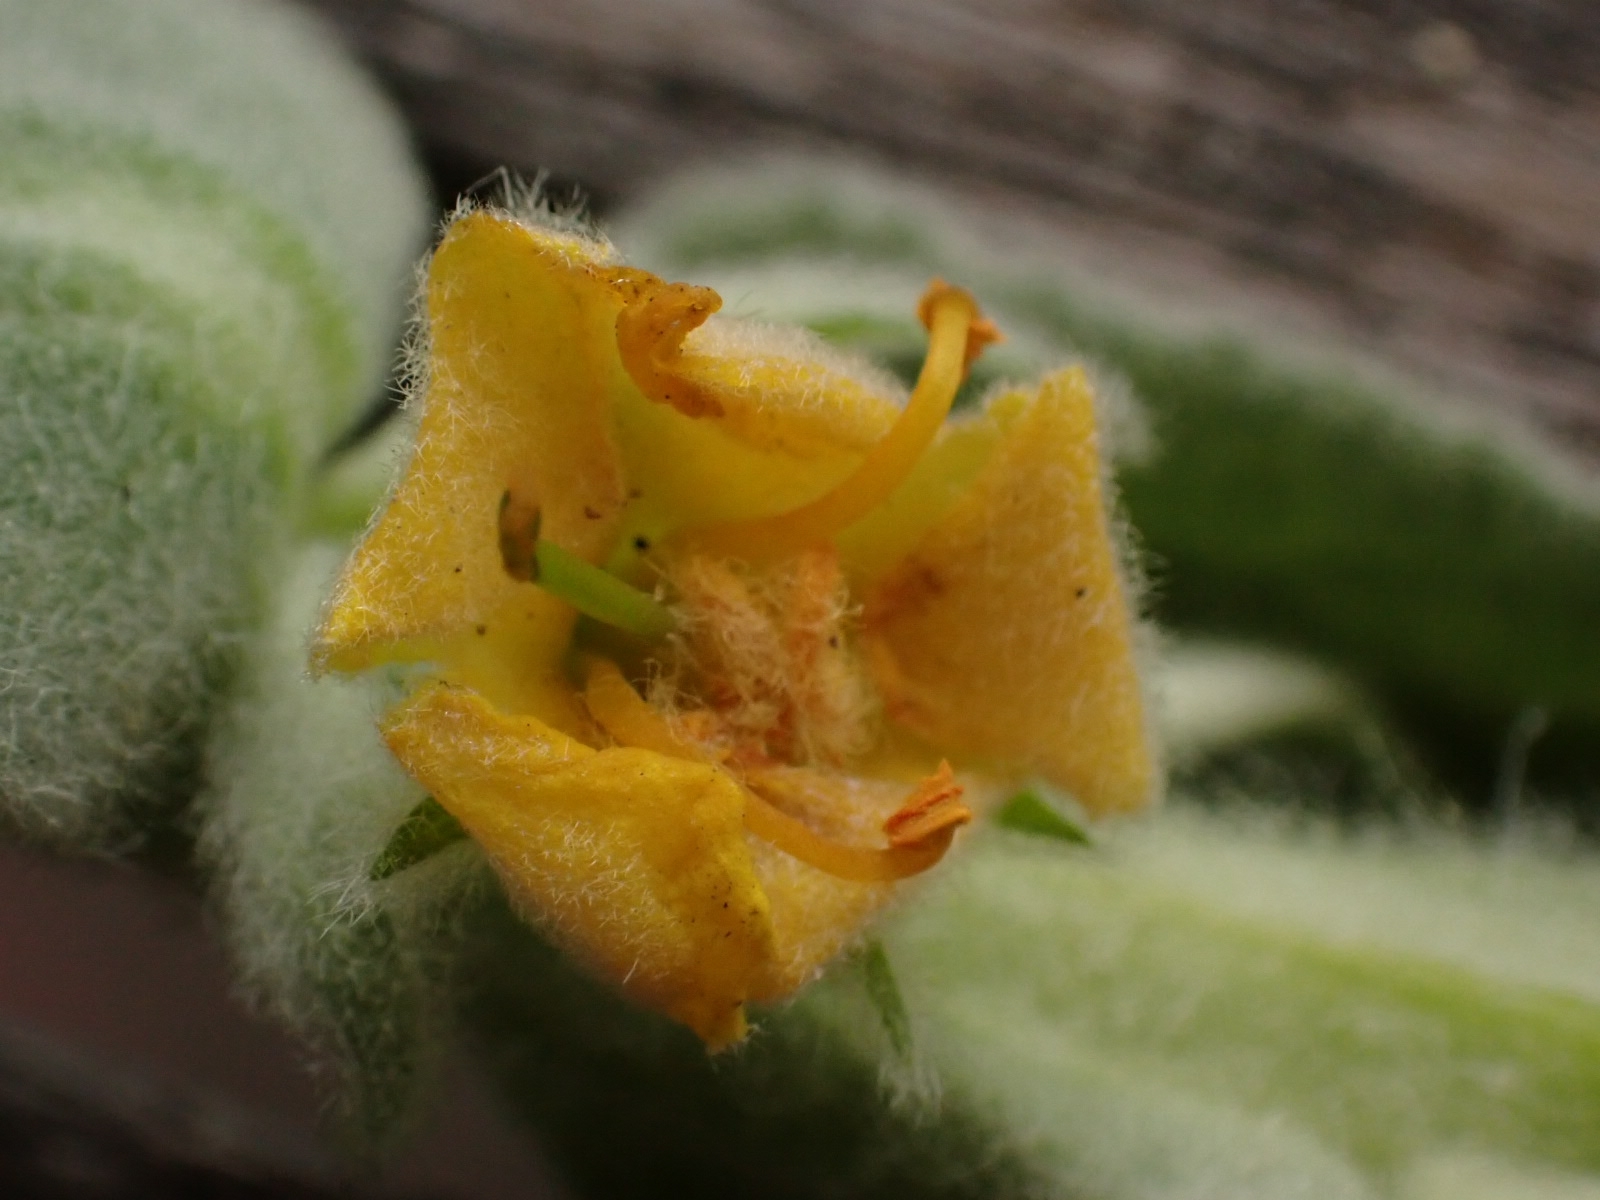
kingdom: Plantae
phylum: Tracheophyta
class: Magnoliopsida
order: Lamiales
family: Scrophulariaceae
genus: Verbascum
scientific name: Verbascum thapsus
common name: Common mullein
